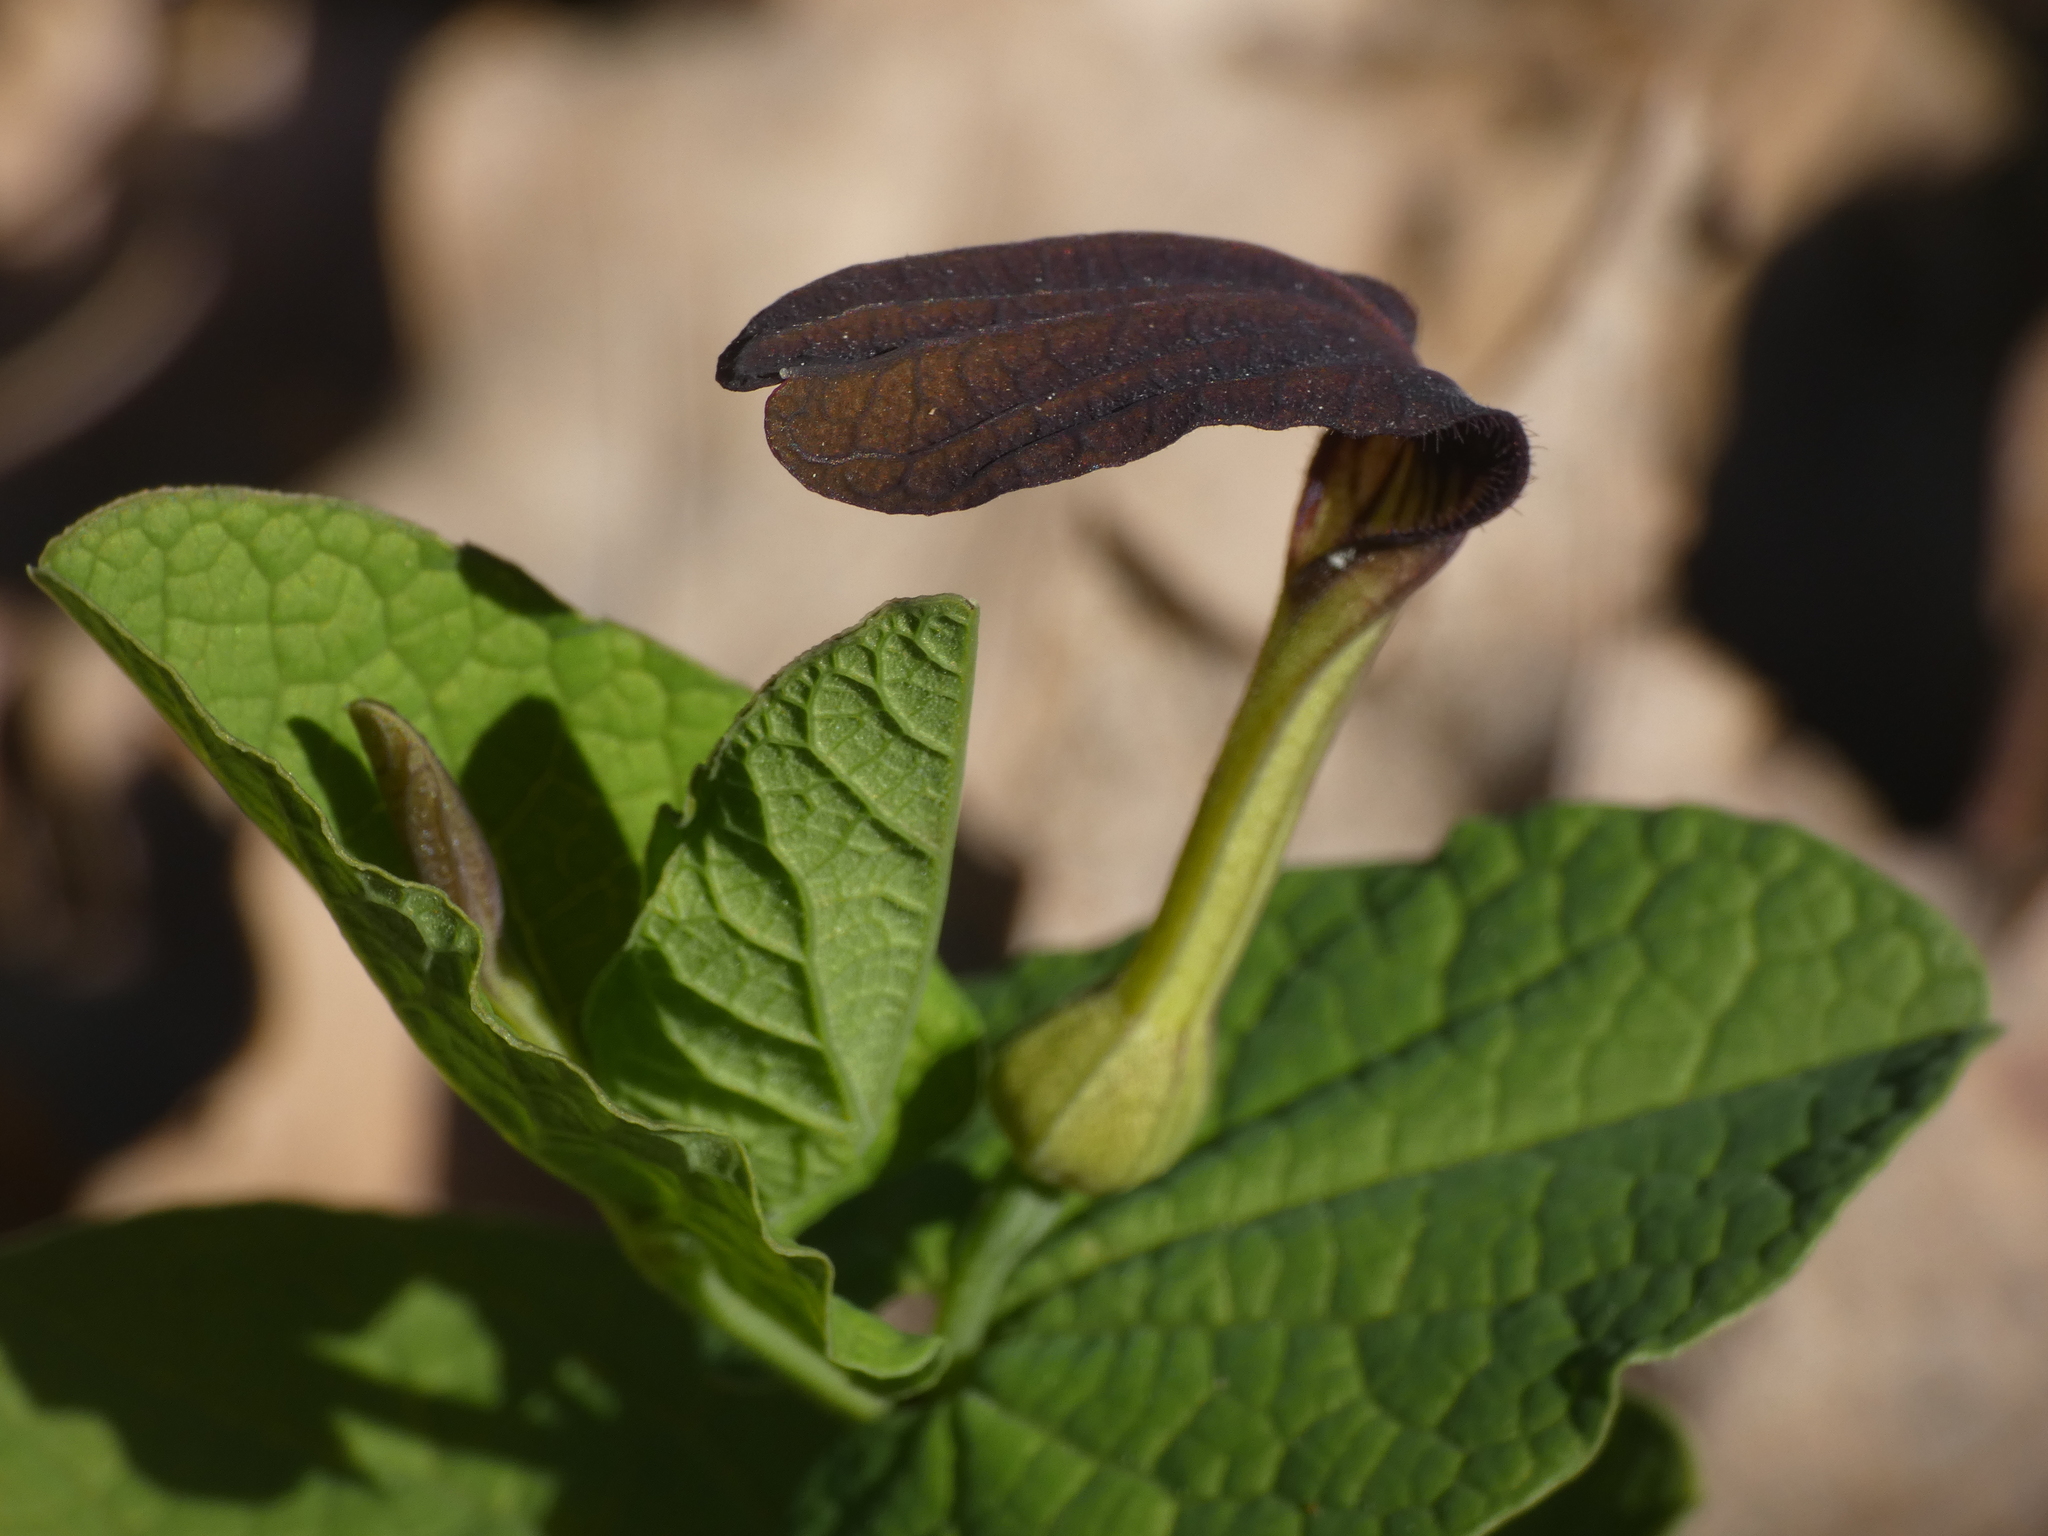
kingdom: Plantae
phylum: Tracheophyta
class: Magnoliopsida
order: Piperales
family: Aristolochiaceae
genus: Aristolochia
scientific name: Aristolochia rotunda
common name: Smearwort
